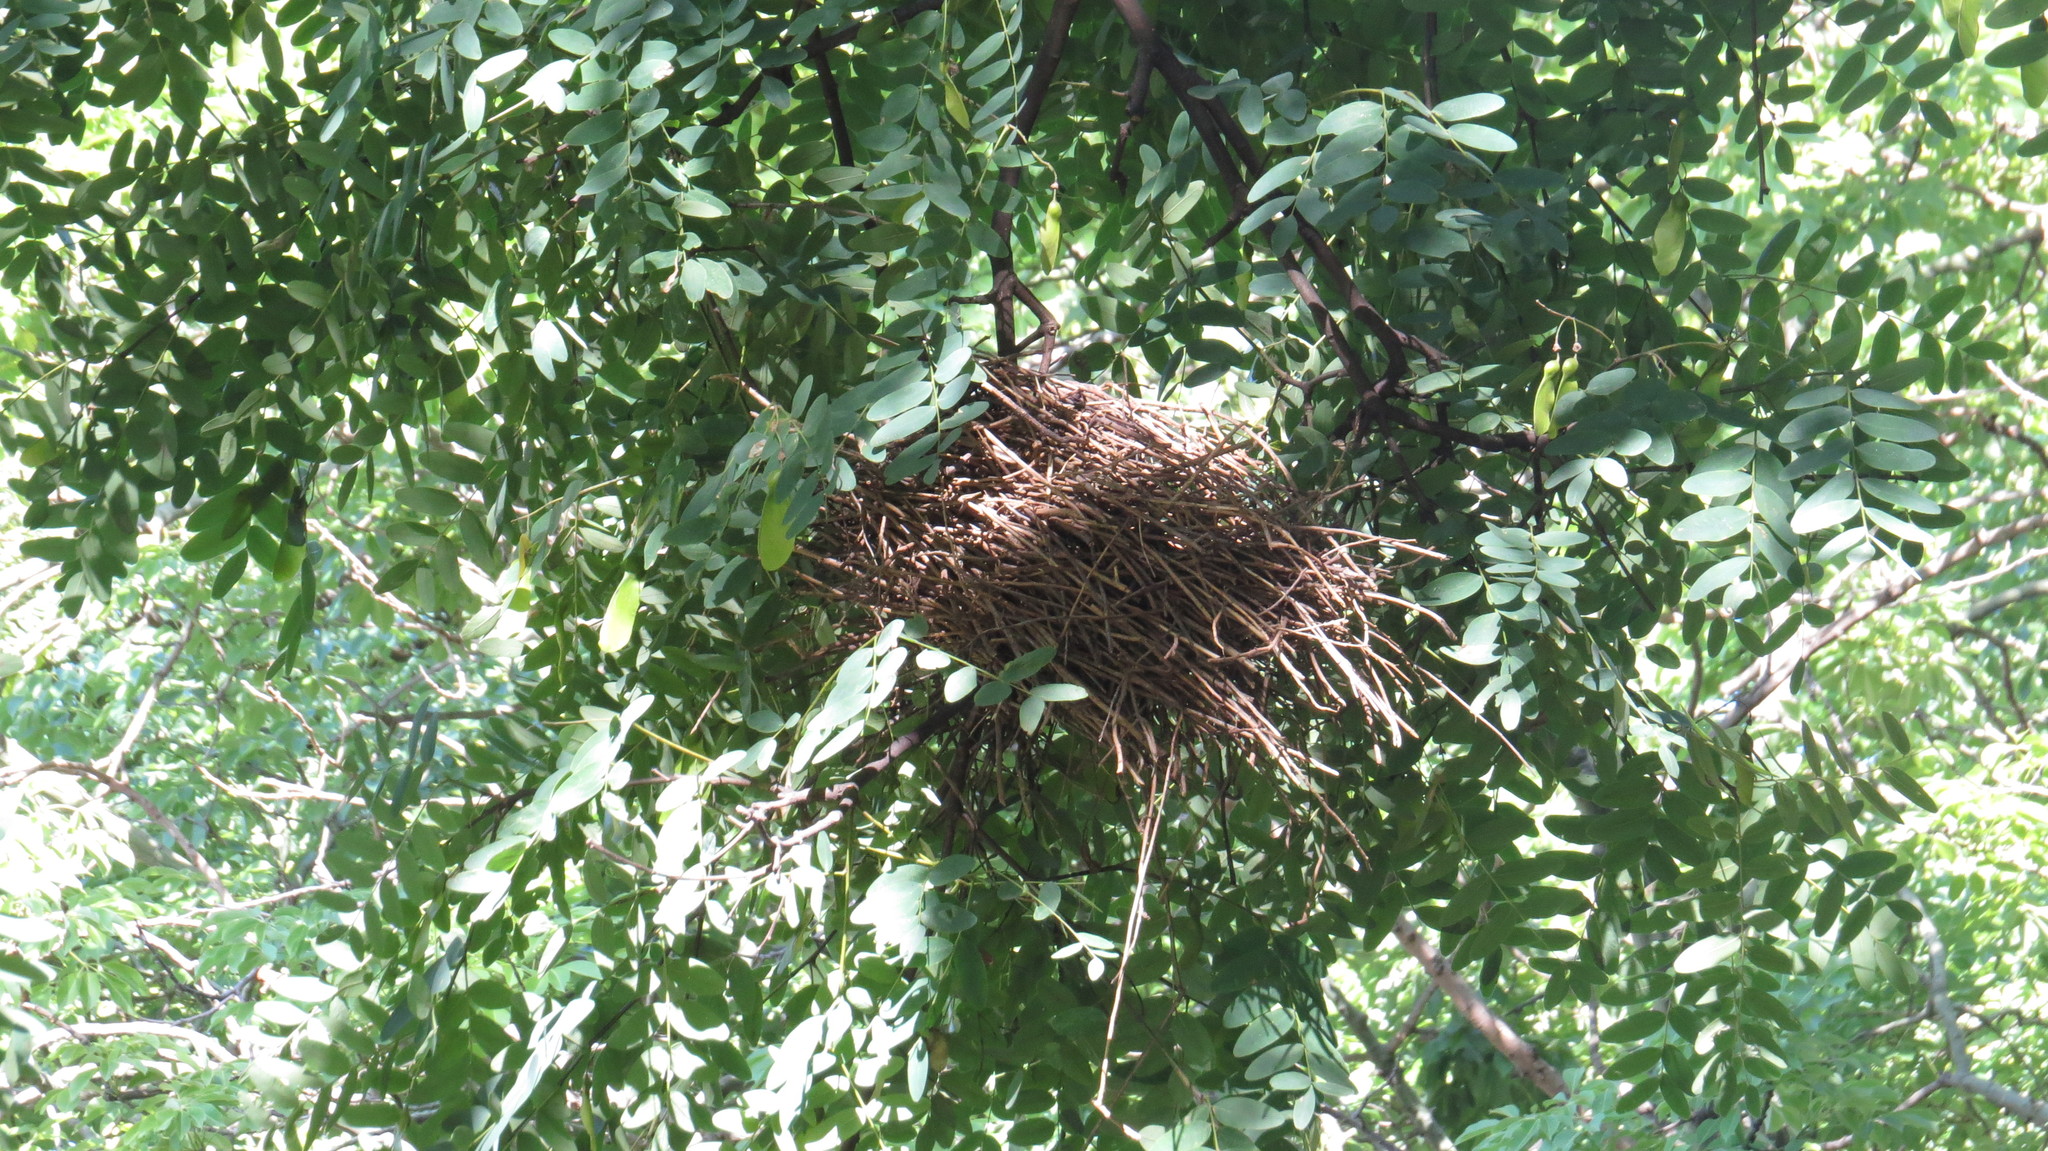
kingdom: Animalia
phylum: Chordata
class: Aves
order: Passeriformes
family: Furnariidae
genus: Phacellodomus
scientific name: Phacellodomus sibilatrix
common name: Little thornbird
